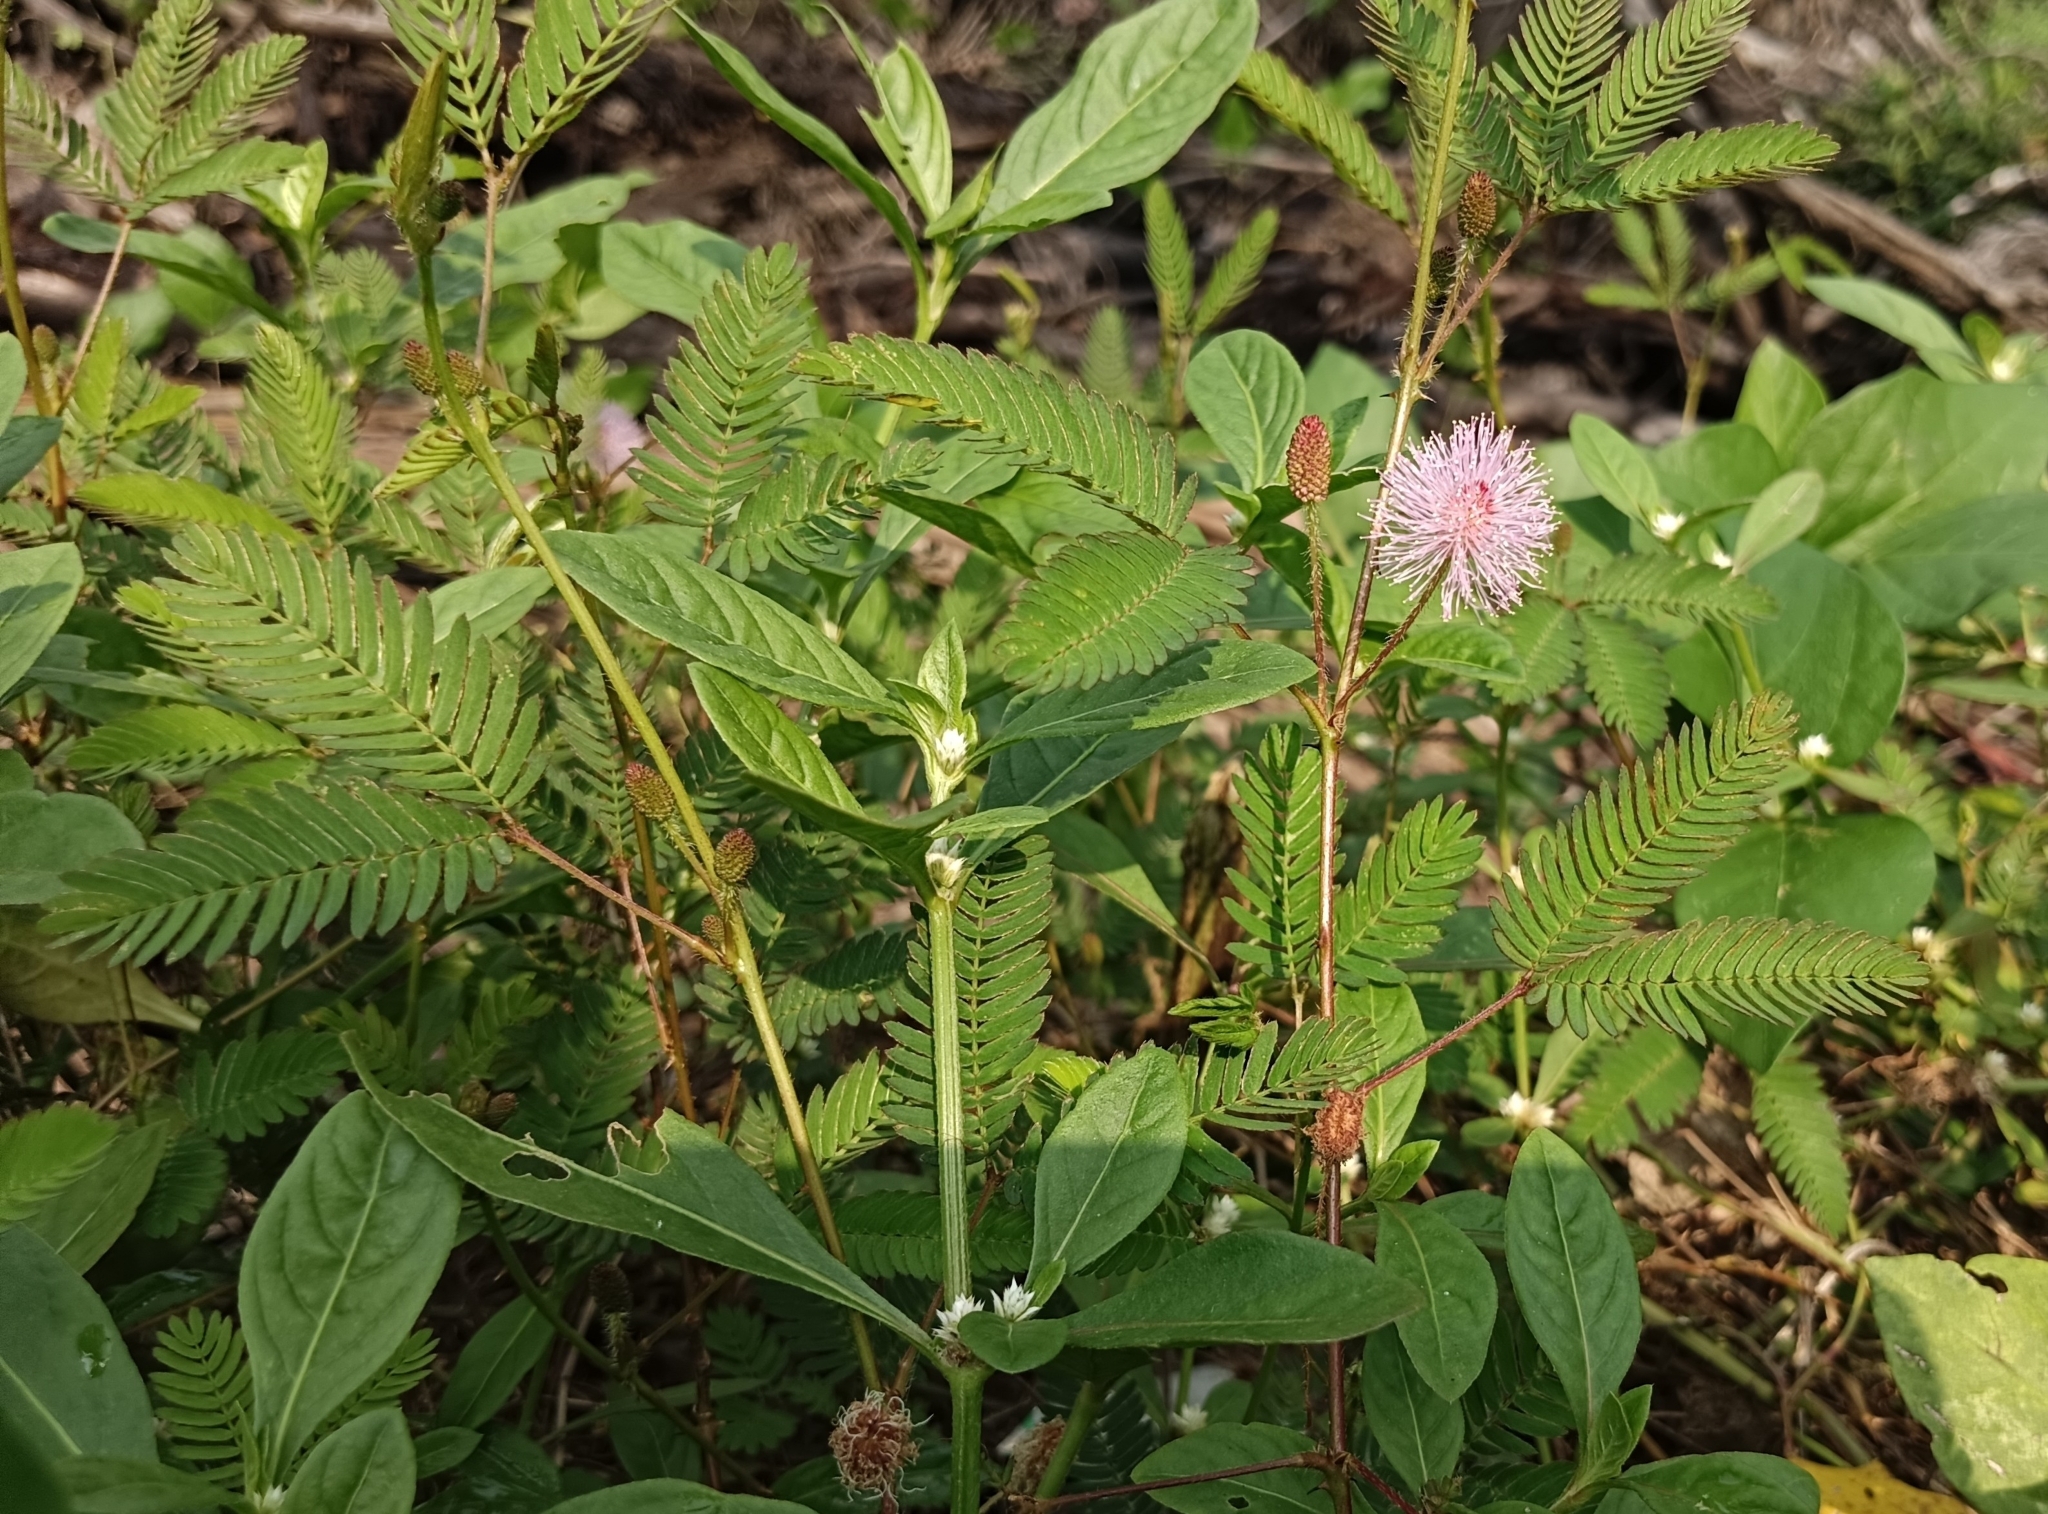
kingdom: Plantae
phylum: Tracheophyta
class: Magnoliopsida
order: Fabales
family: Fabaceae
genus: Mimosa
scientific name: Mimosa pudica
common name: Sensitive plant
